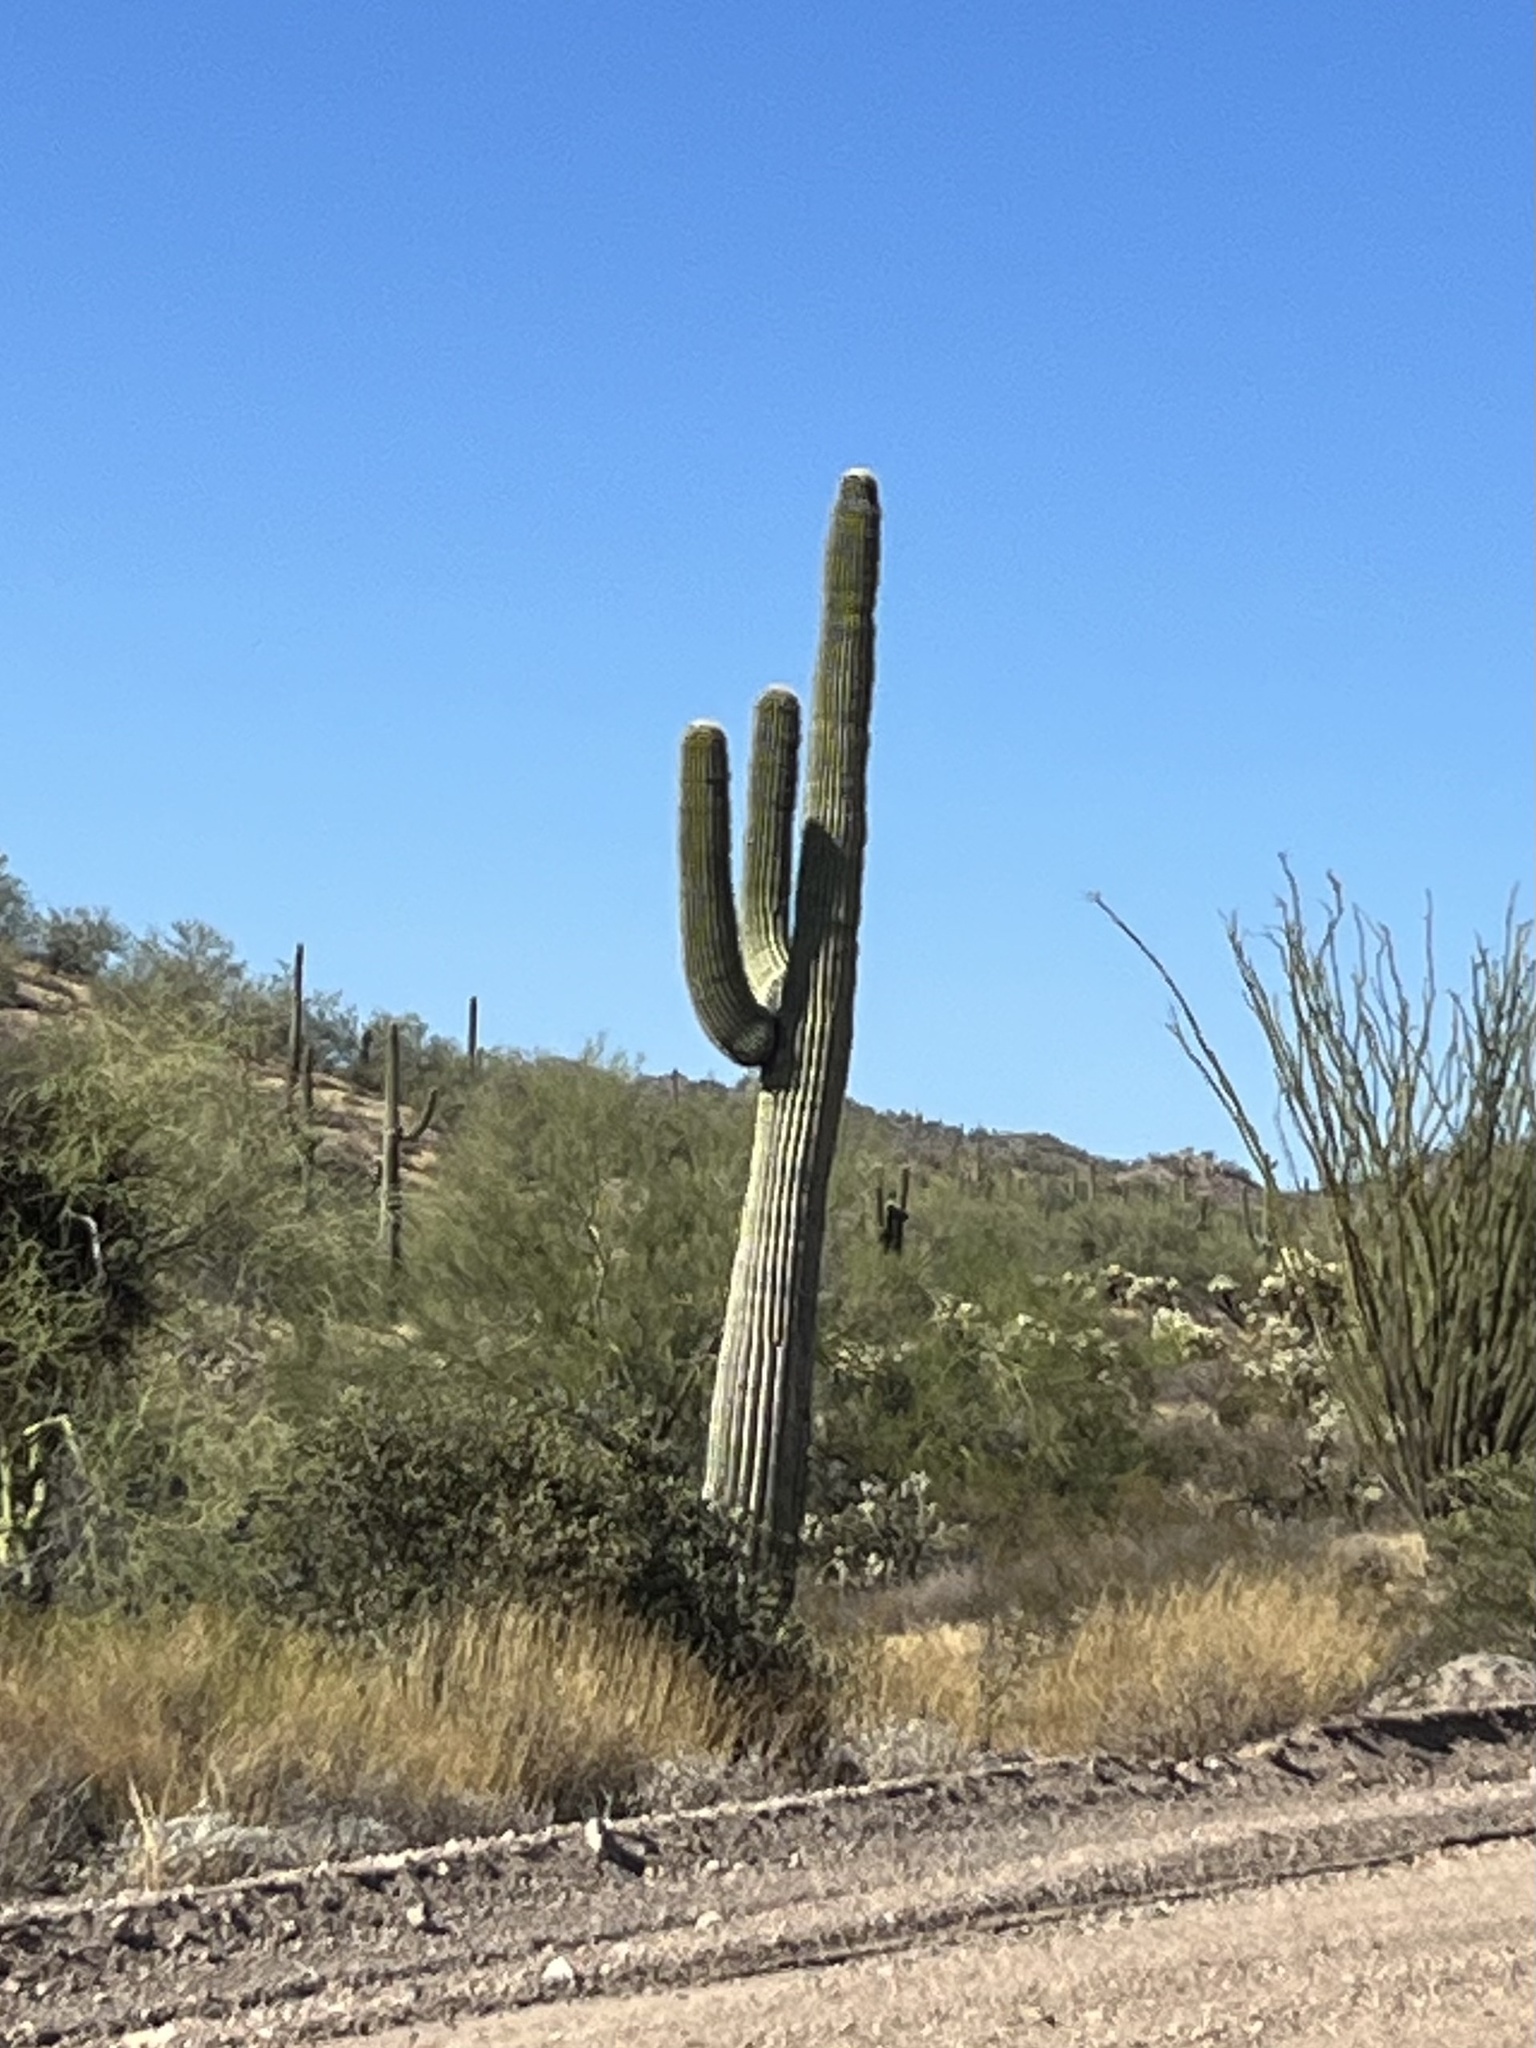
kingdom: Plantae
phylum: Tracheophyta
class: Magnoliopsida
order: Caryophyllales
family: Cactaceae
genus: Carnegiea
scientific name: Carnegiea gigantea
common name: Saguaro
